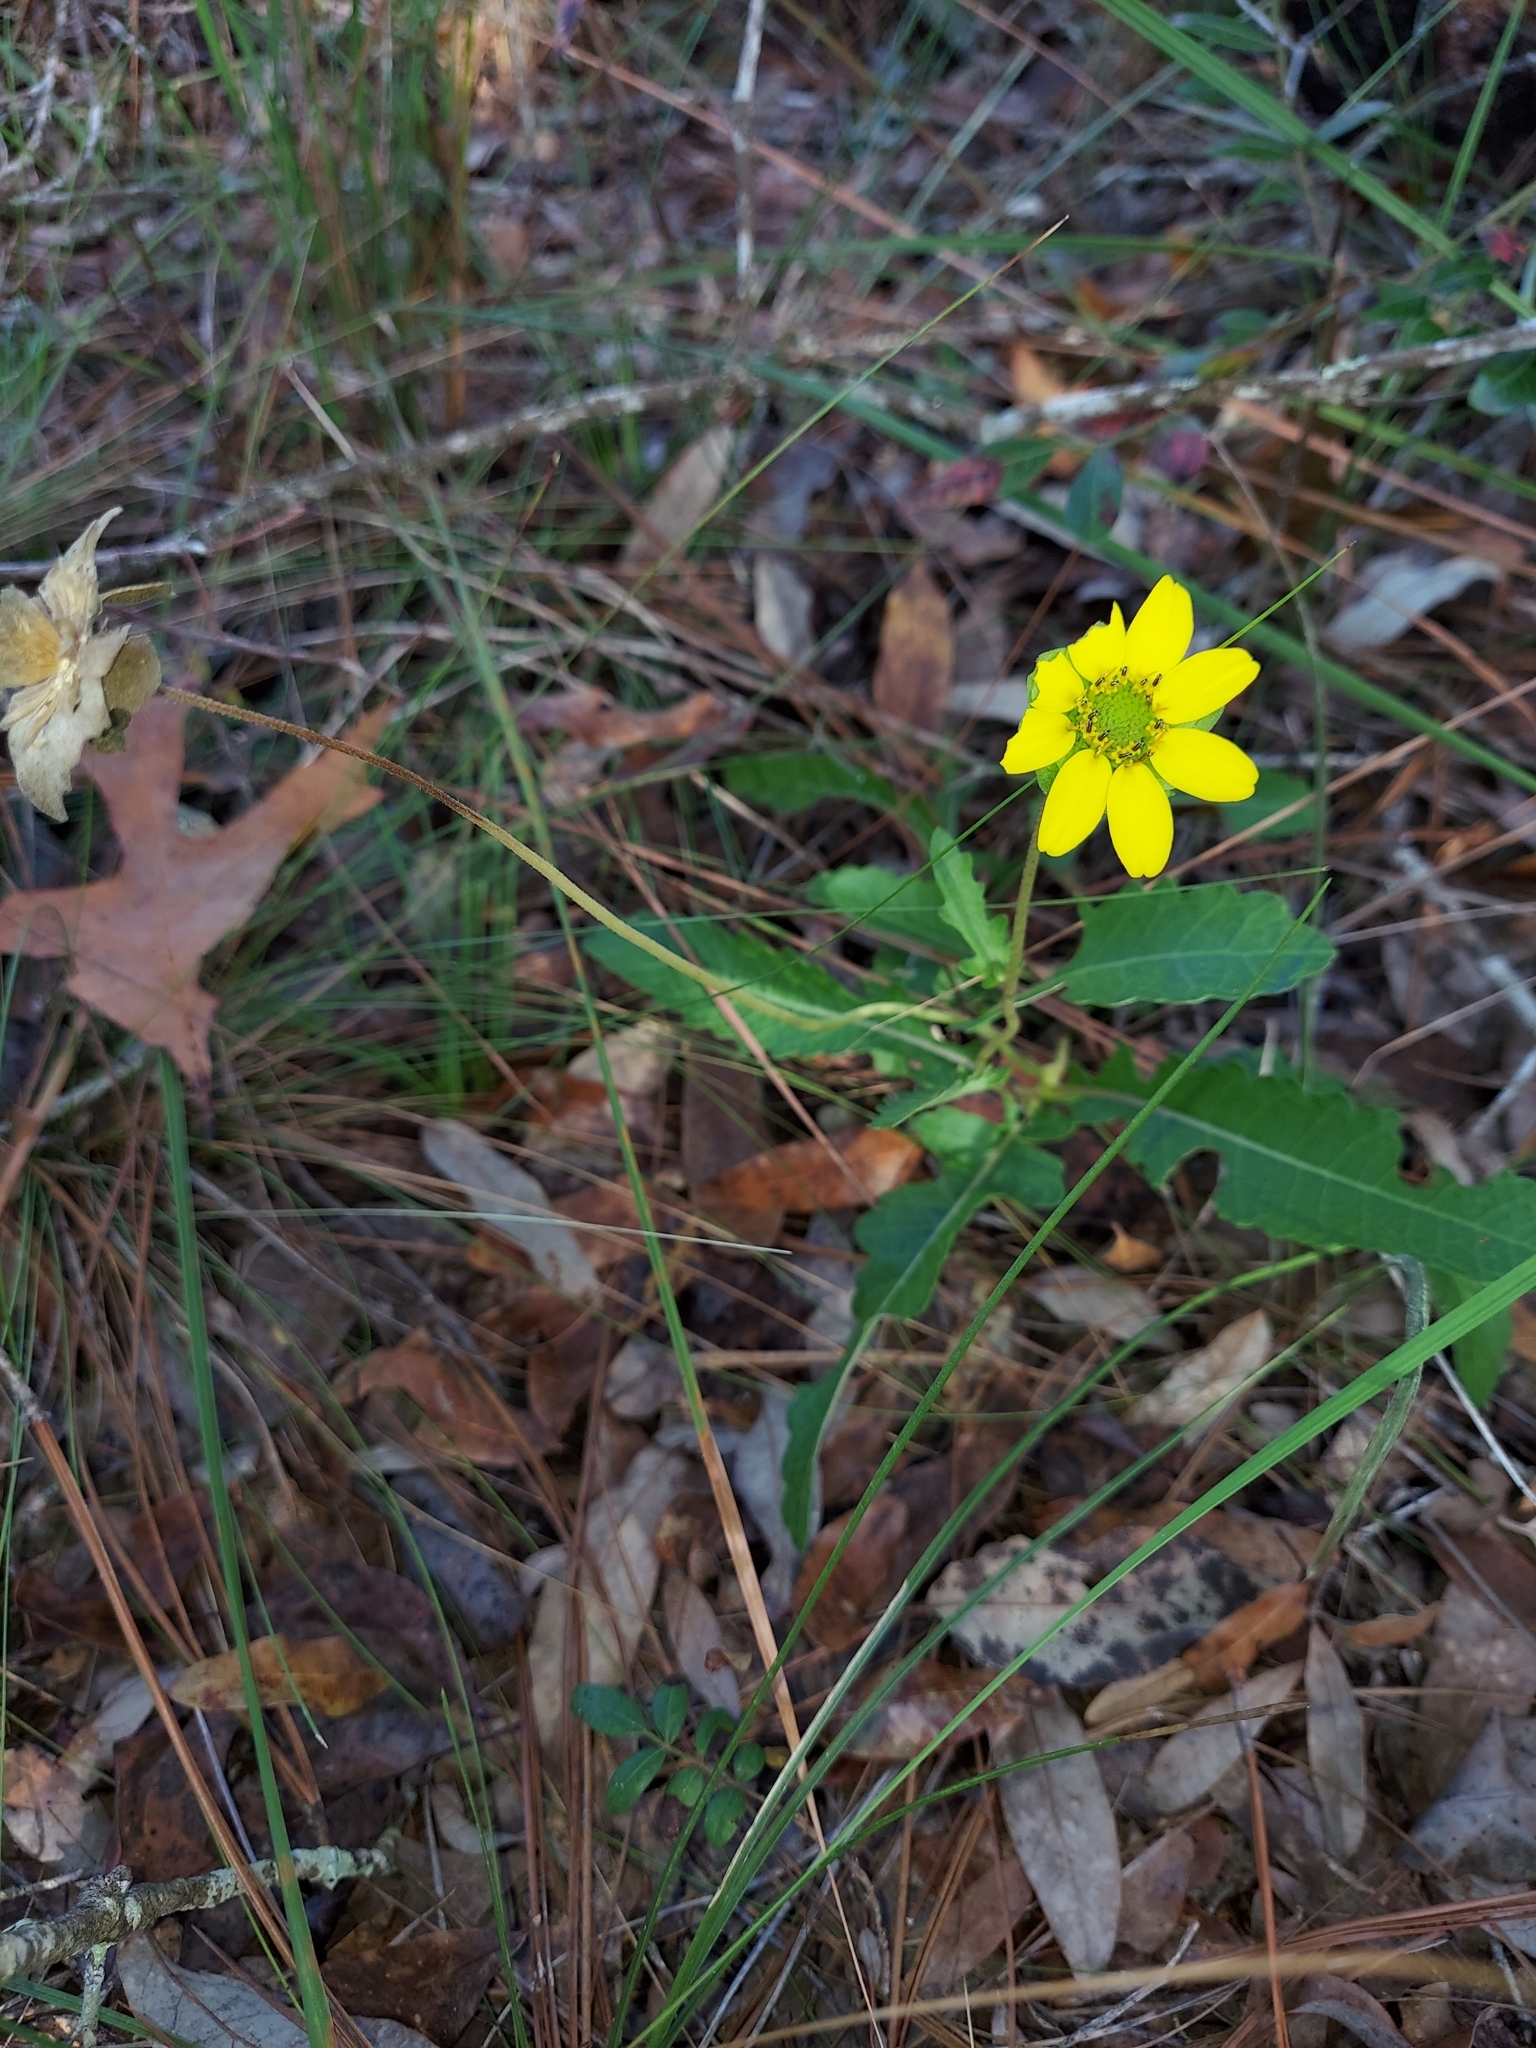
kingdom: Plantae
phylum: Tracheophyta
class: Magnoliopsida
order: Asterales
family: Asteraceae
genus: Berlandiera
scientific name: Berlandiera subacaulis
